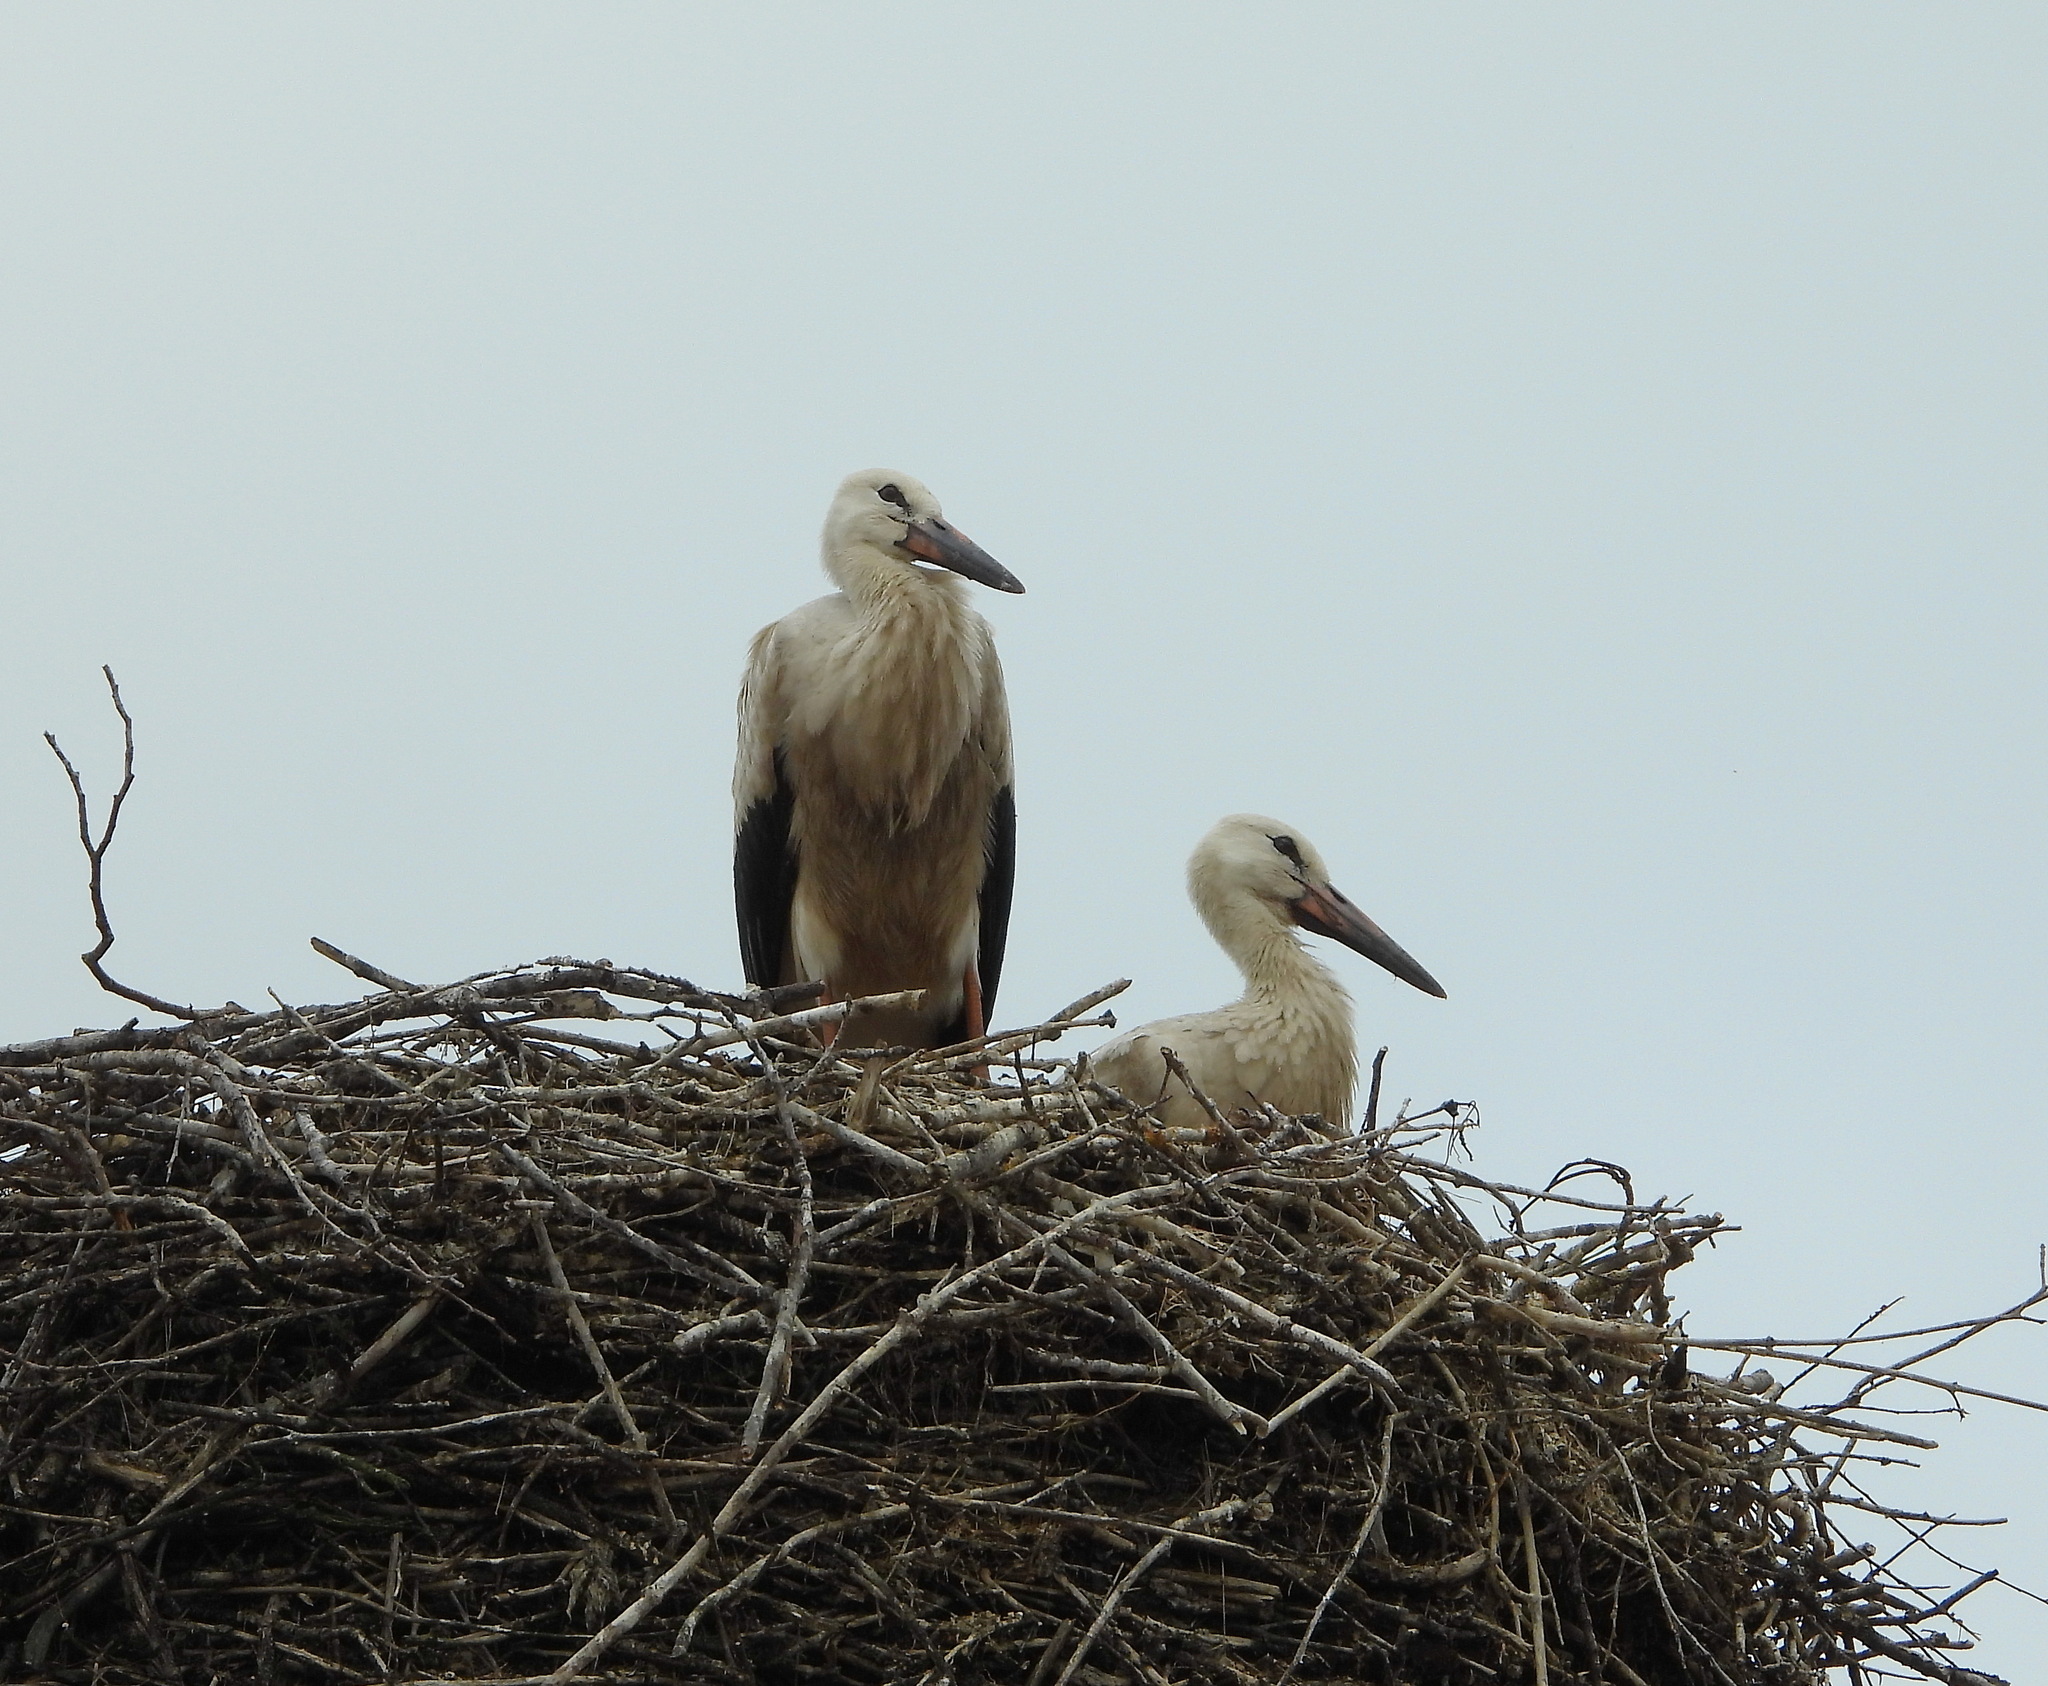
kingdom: Animalia
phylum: Chordata
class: Aves
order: Ciconiiformes
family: Ciconiidae
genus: Ciconia
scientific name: Ciconia ciconia
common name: White stork
